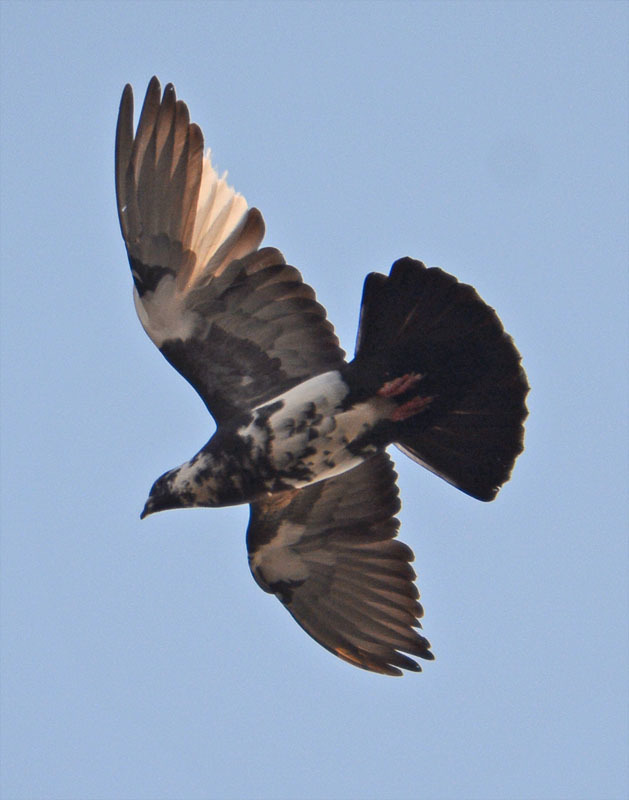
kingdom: Animalia
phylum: Chordata
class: Aves
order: Columbiformes
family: Columbidae
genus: Columba
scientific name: Columba livia
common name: Rock pigeon
